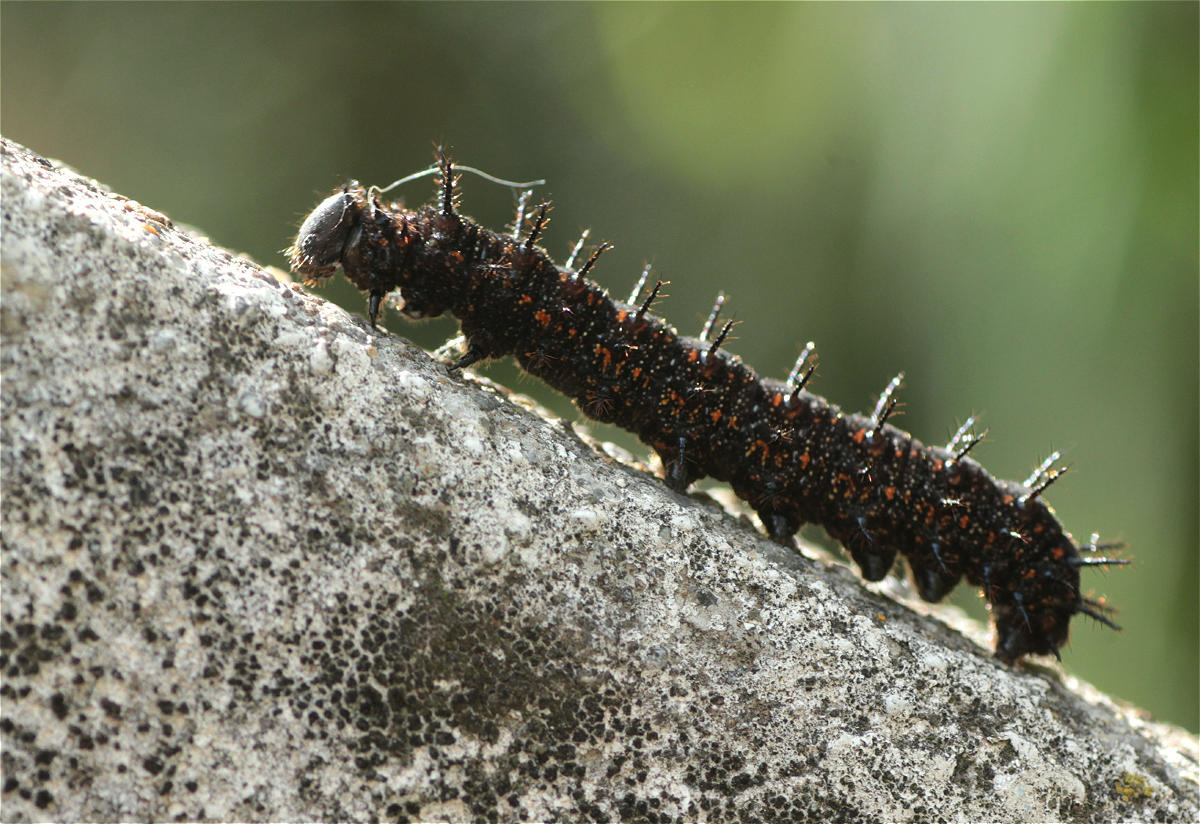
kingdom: Animalia
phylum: Arthropoda
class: Insecta
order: Lepidoptera
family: Nymphalidae
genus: Dione
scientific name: Dione juno
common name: Juno silverspot
